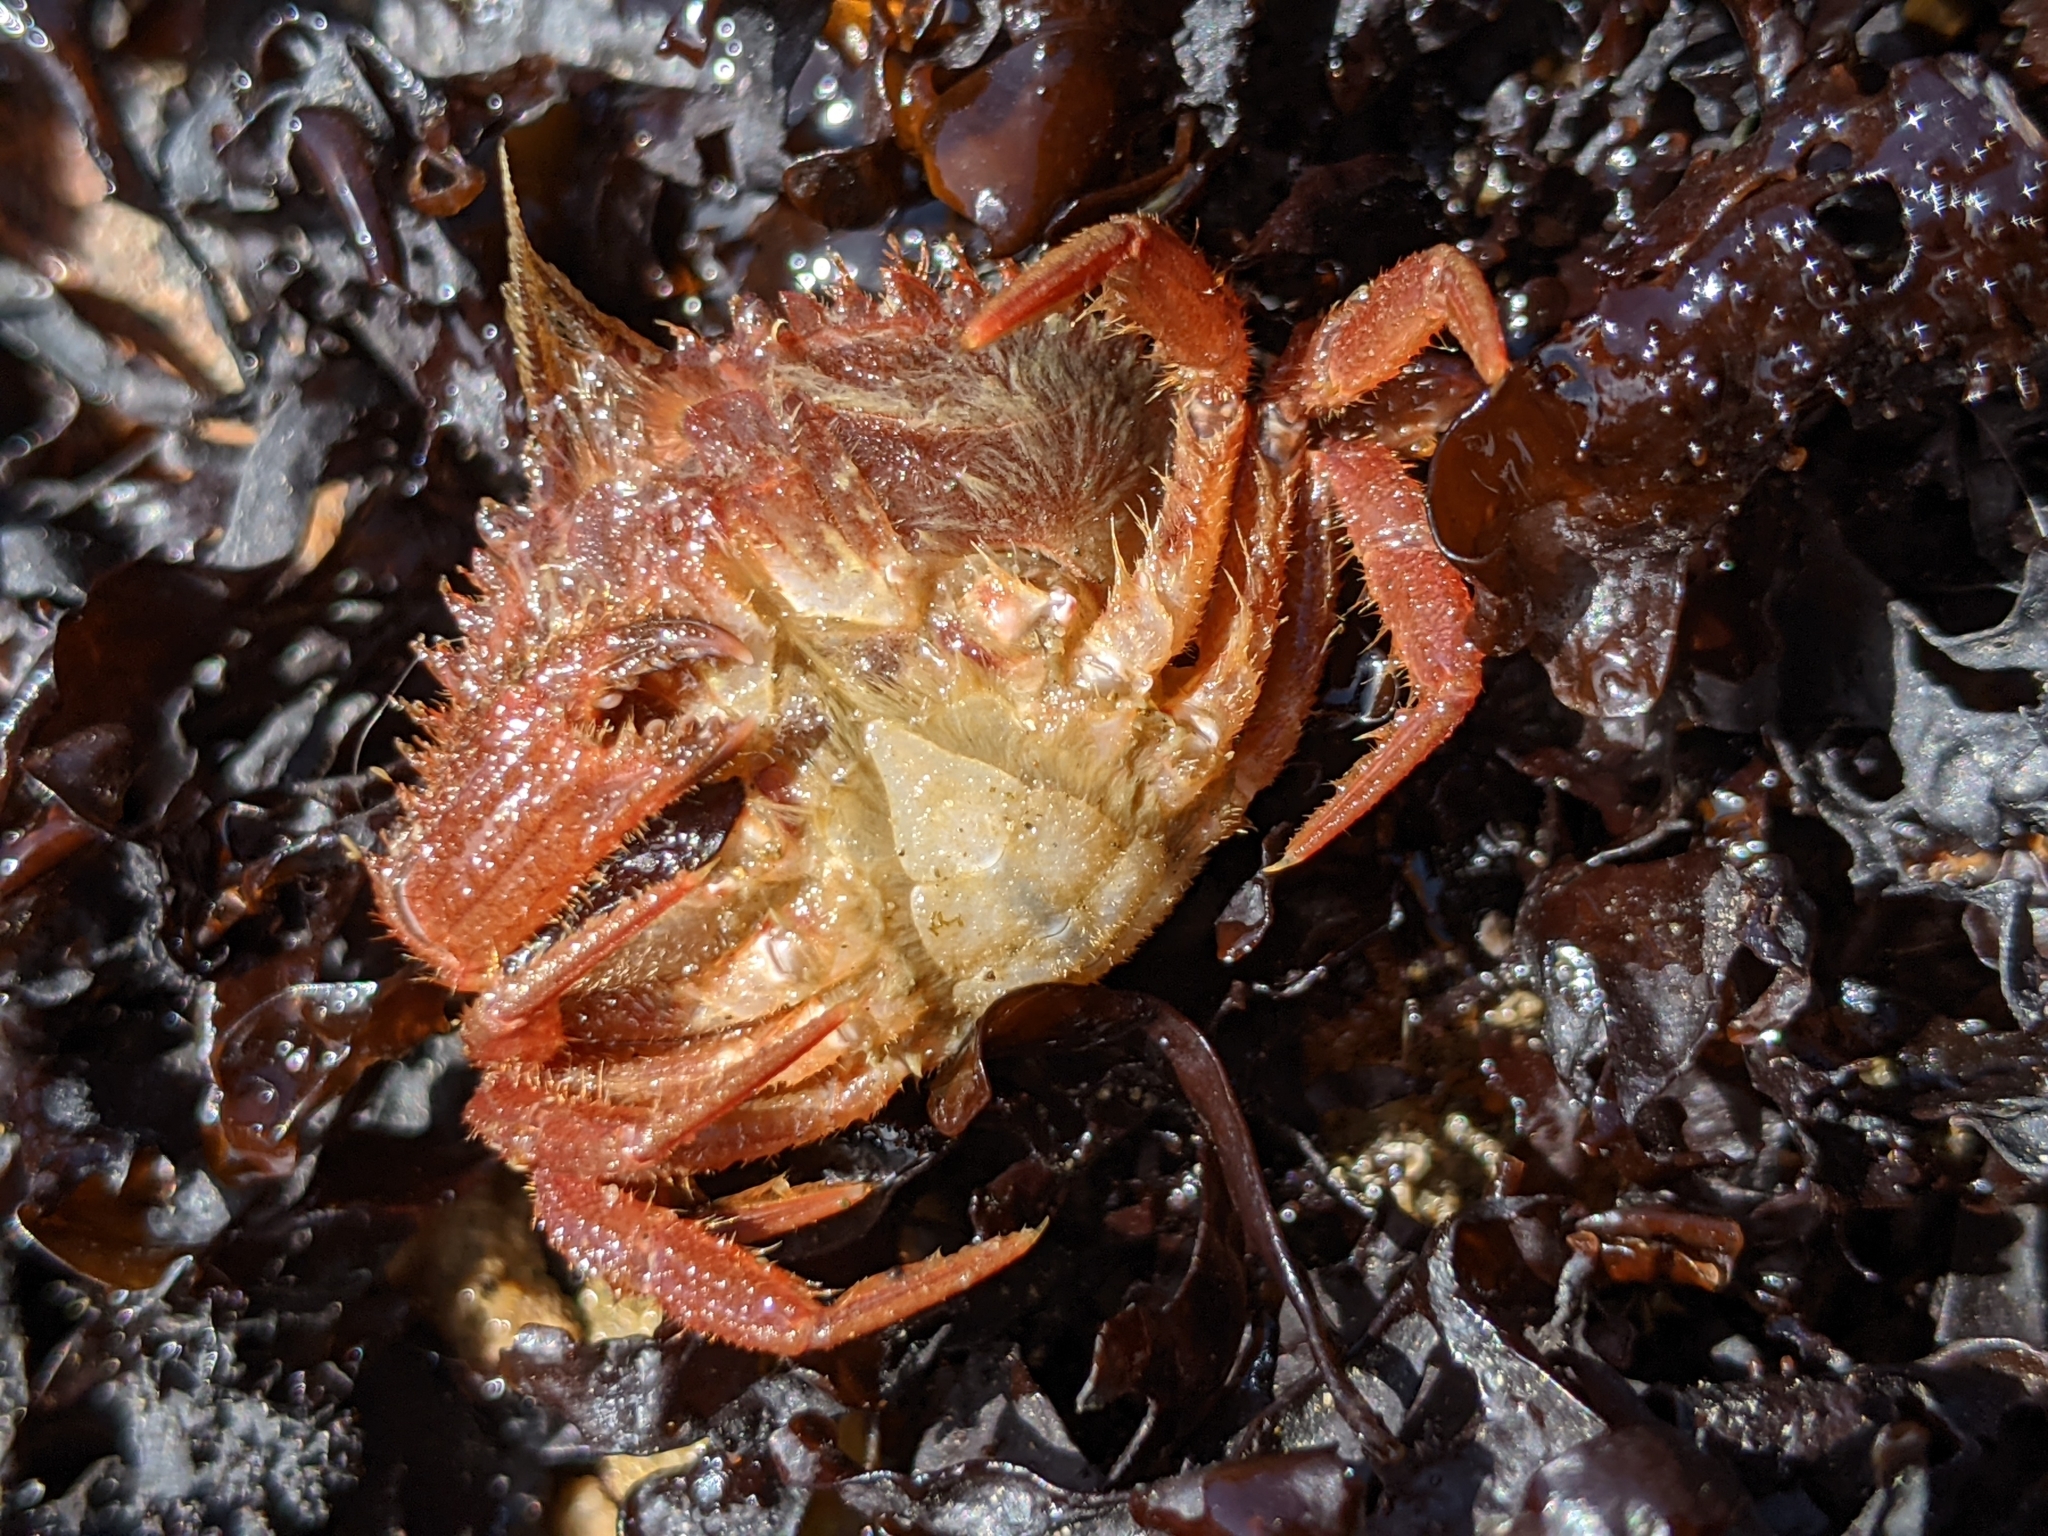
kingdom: Animalia
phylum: Arthropoda
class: Malacostraca
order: Decapoda
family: Cancridae
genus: Romaleon
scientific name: Romaleon jordani
